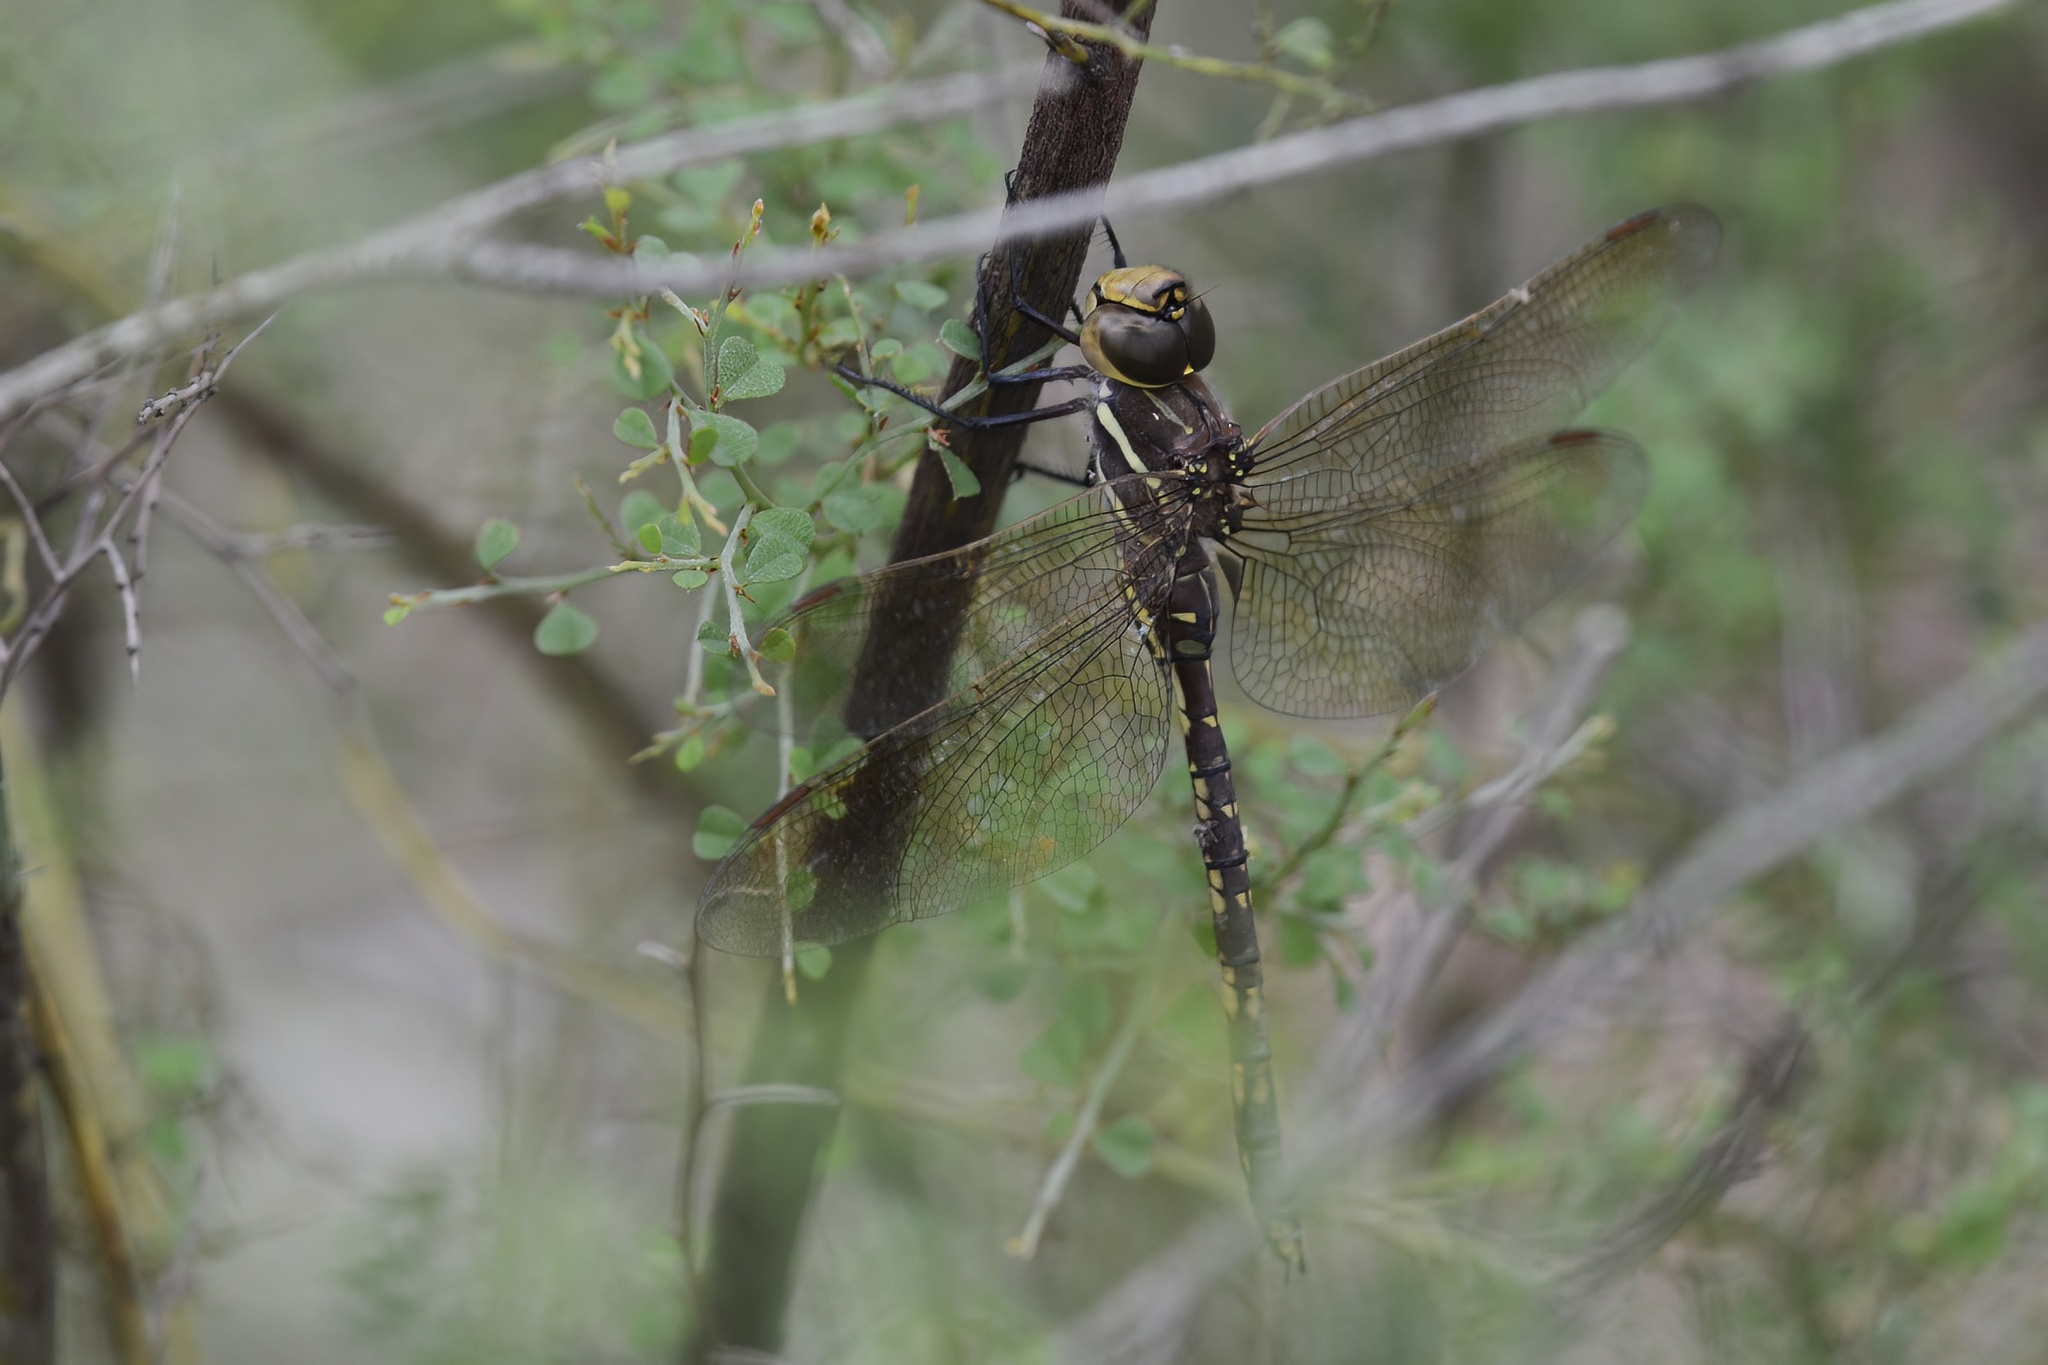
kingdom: Animalia
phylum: Arthropoda
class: Insecta
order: Odonata
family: Aeshnidae
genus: Aeshna
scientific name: Aeshna brevistyla
